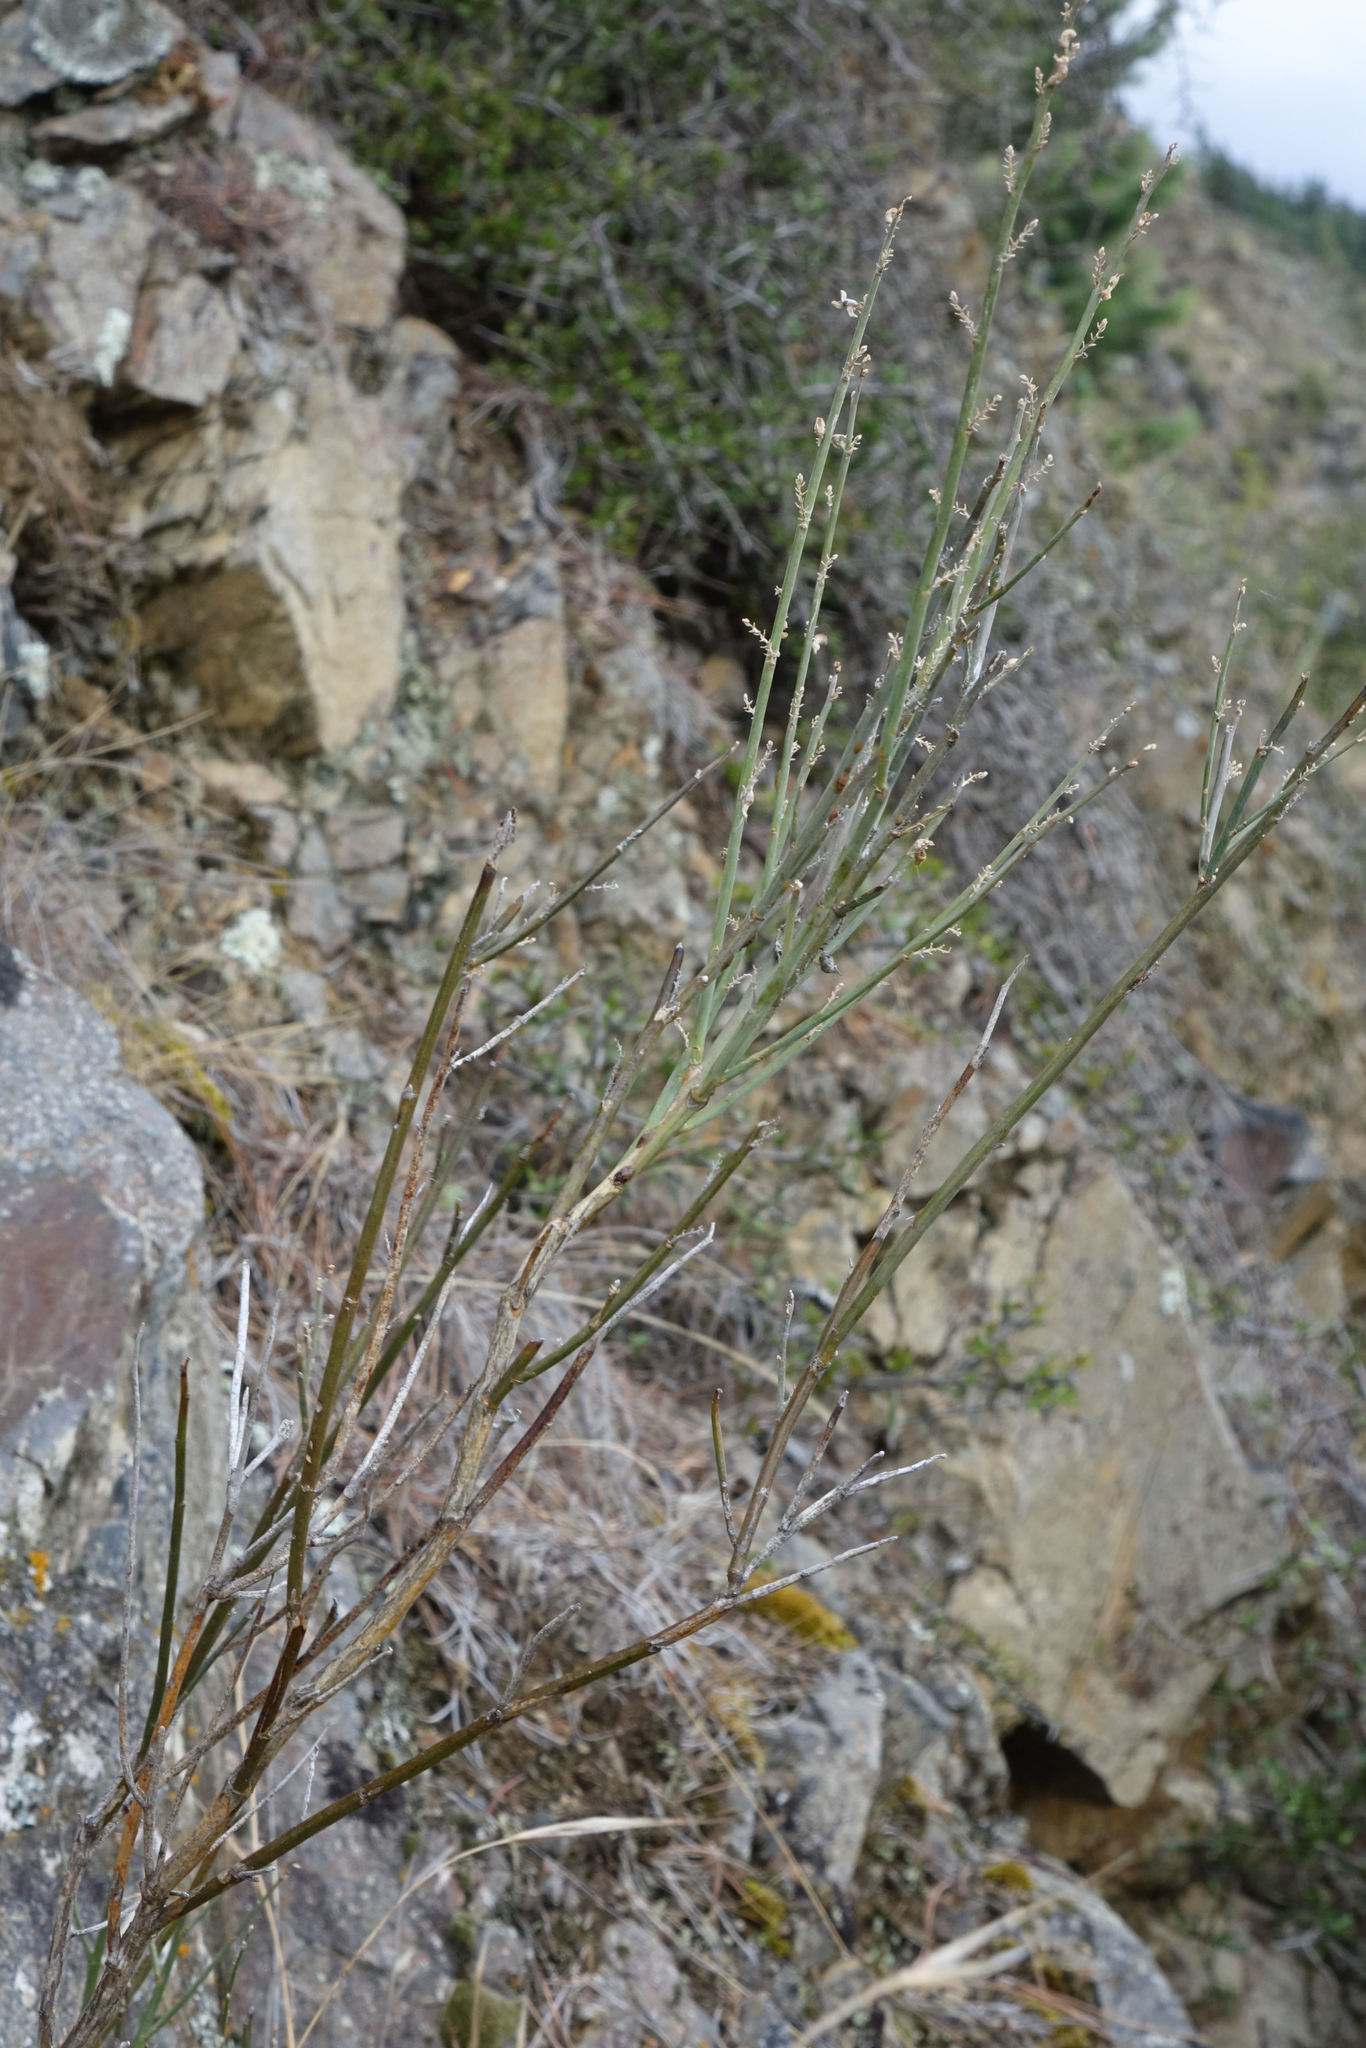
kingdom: Plantae
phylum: Tracheophyta
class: Magnoliopsida
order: Fabales
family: Fabaceae
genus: Carmichaelia
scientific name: Carmichaelia curta
